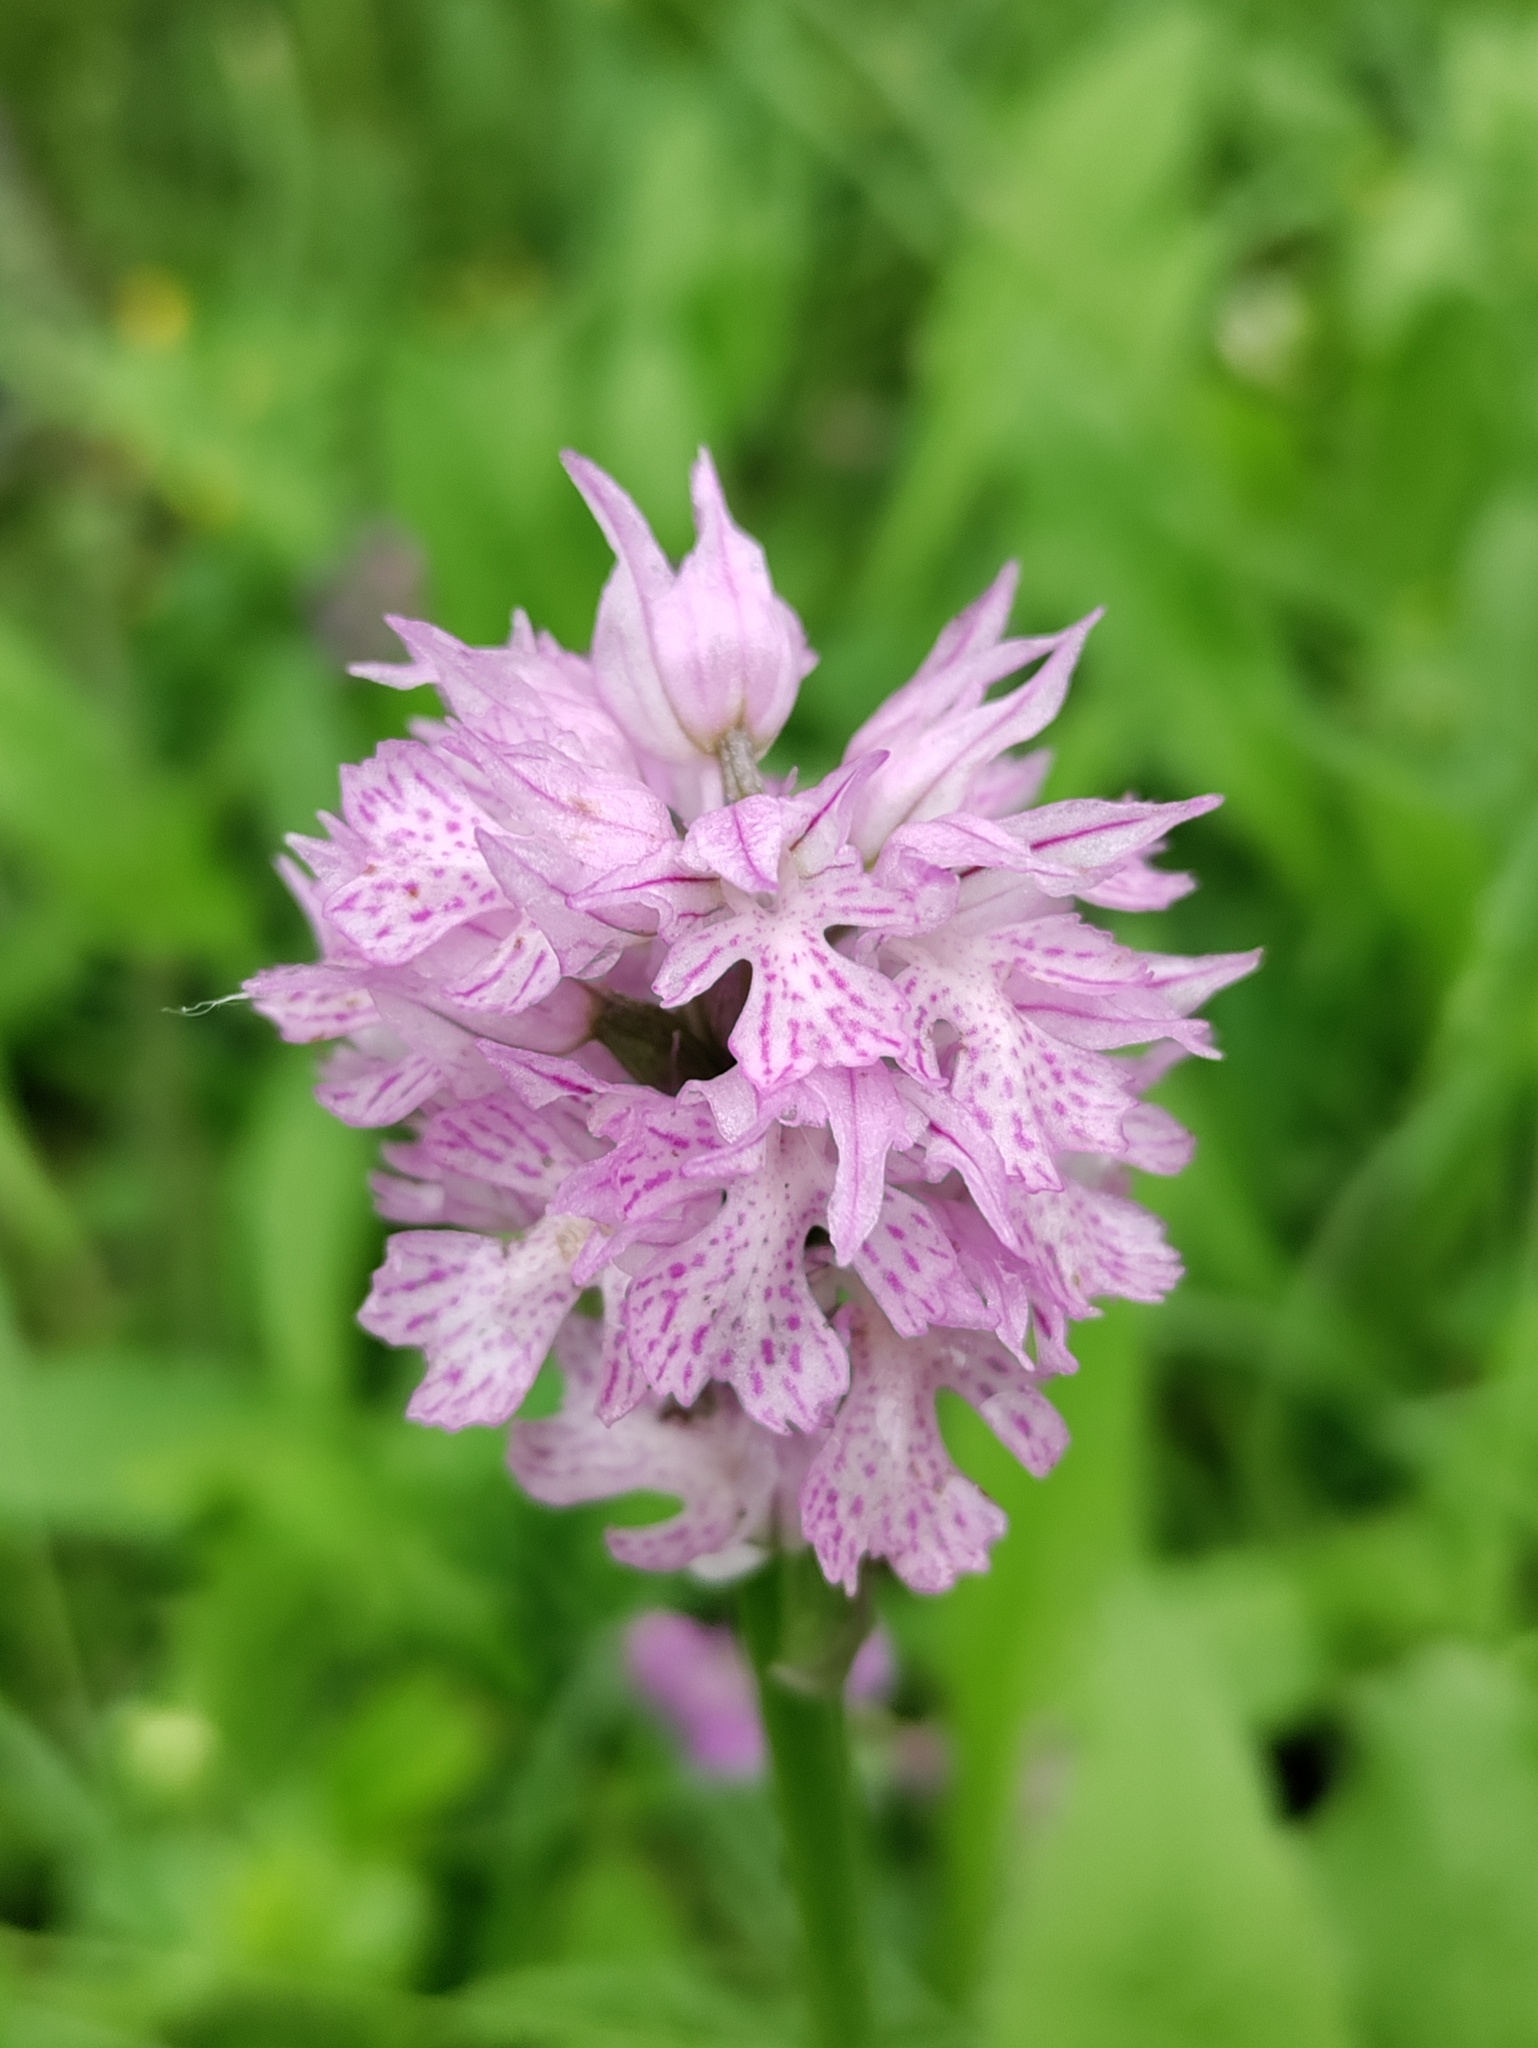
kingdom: Plantae
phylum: Tracheophyta
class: Liliopsida
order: Asparagales
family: Orchidaceae
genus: Neotinea
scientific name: Neotinea tridentata
